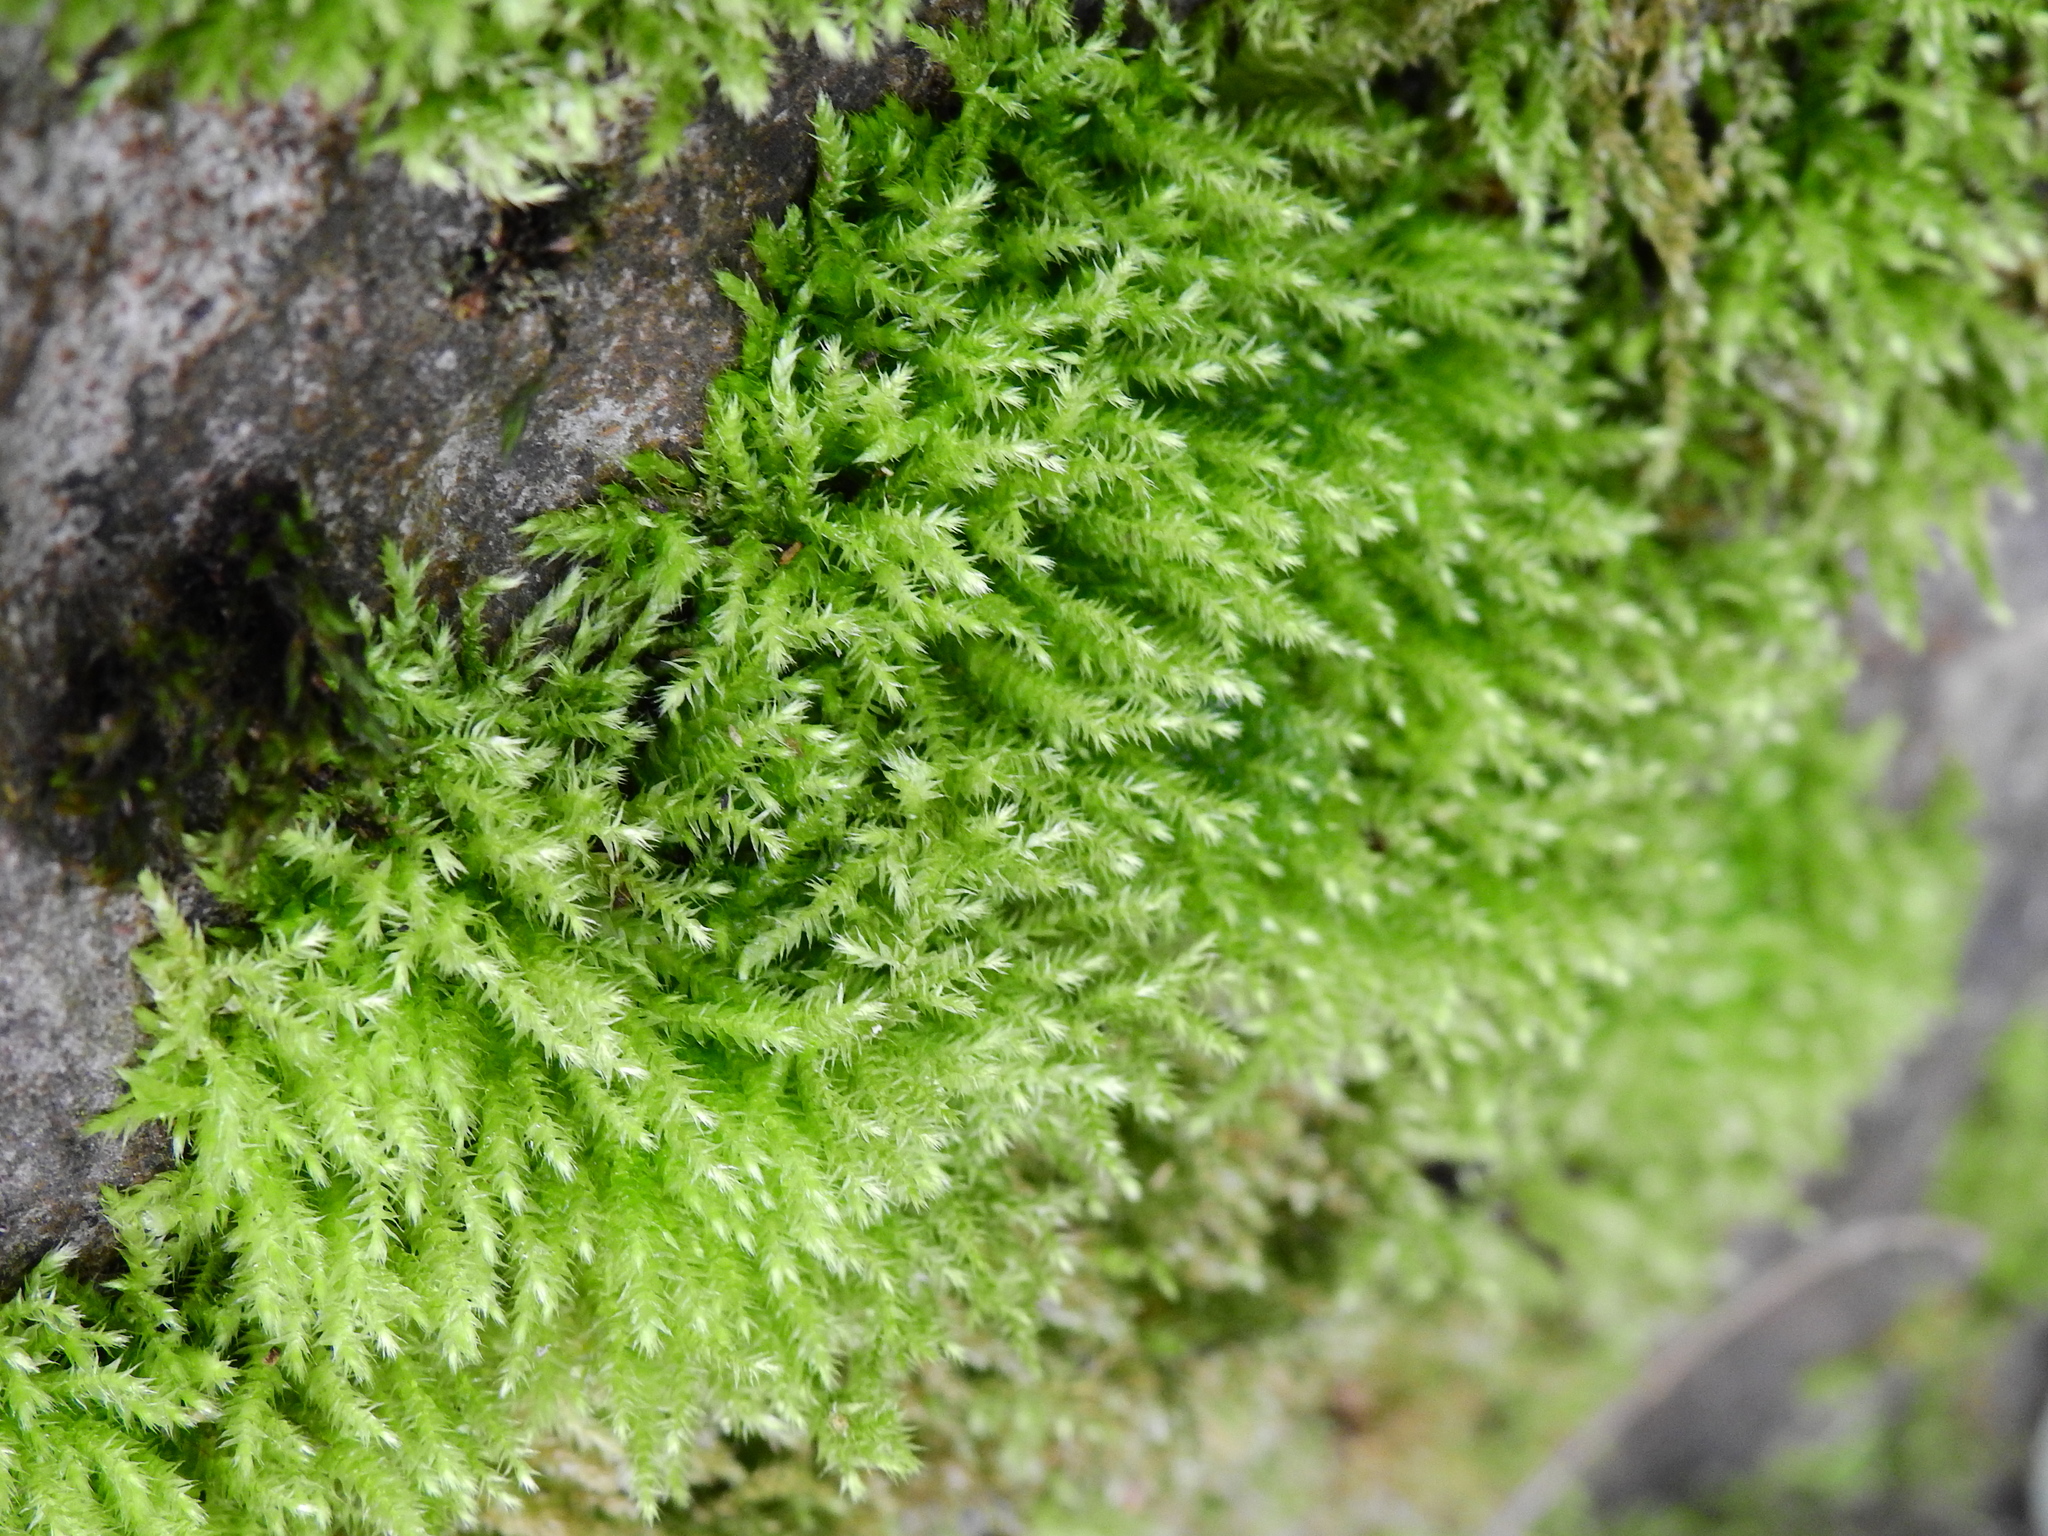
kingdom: Plantae
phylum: Bryophyta
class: Bryopsida
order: Hypnales
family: Brachytheciaceae
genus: Rhynchostegium
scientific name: Rhynchostegium confertum
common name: Clustered feather-moss
